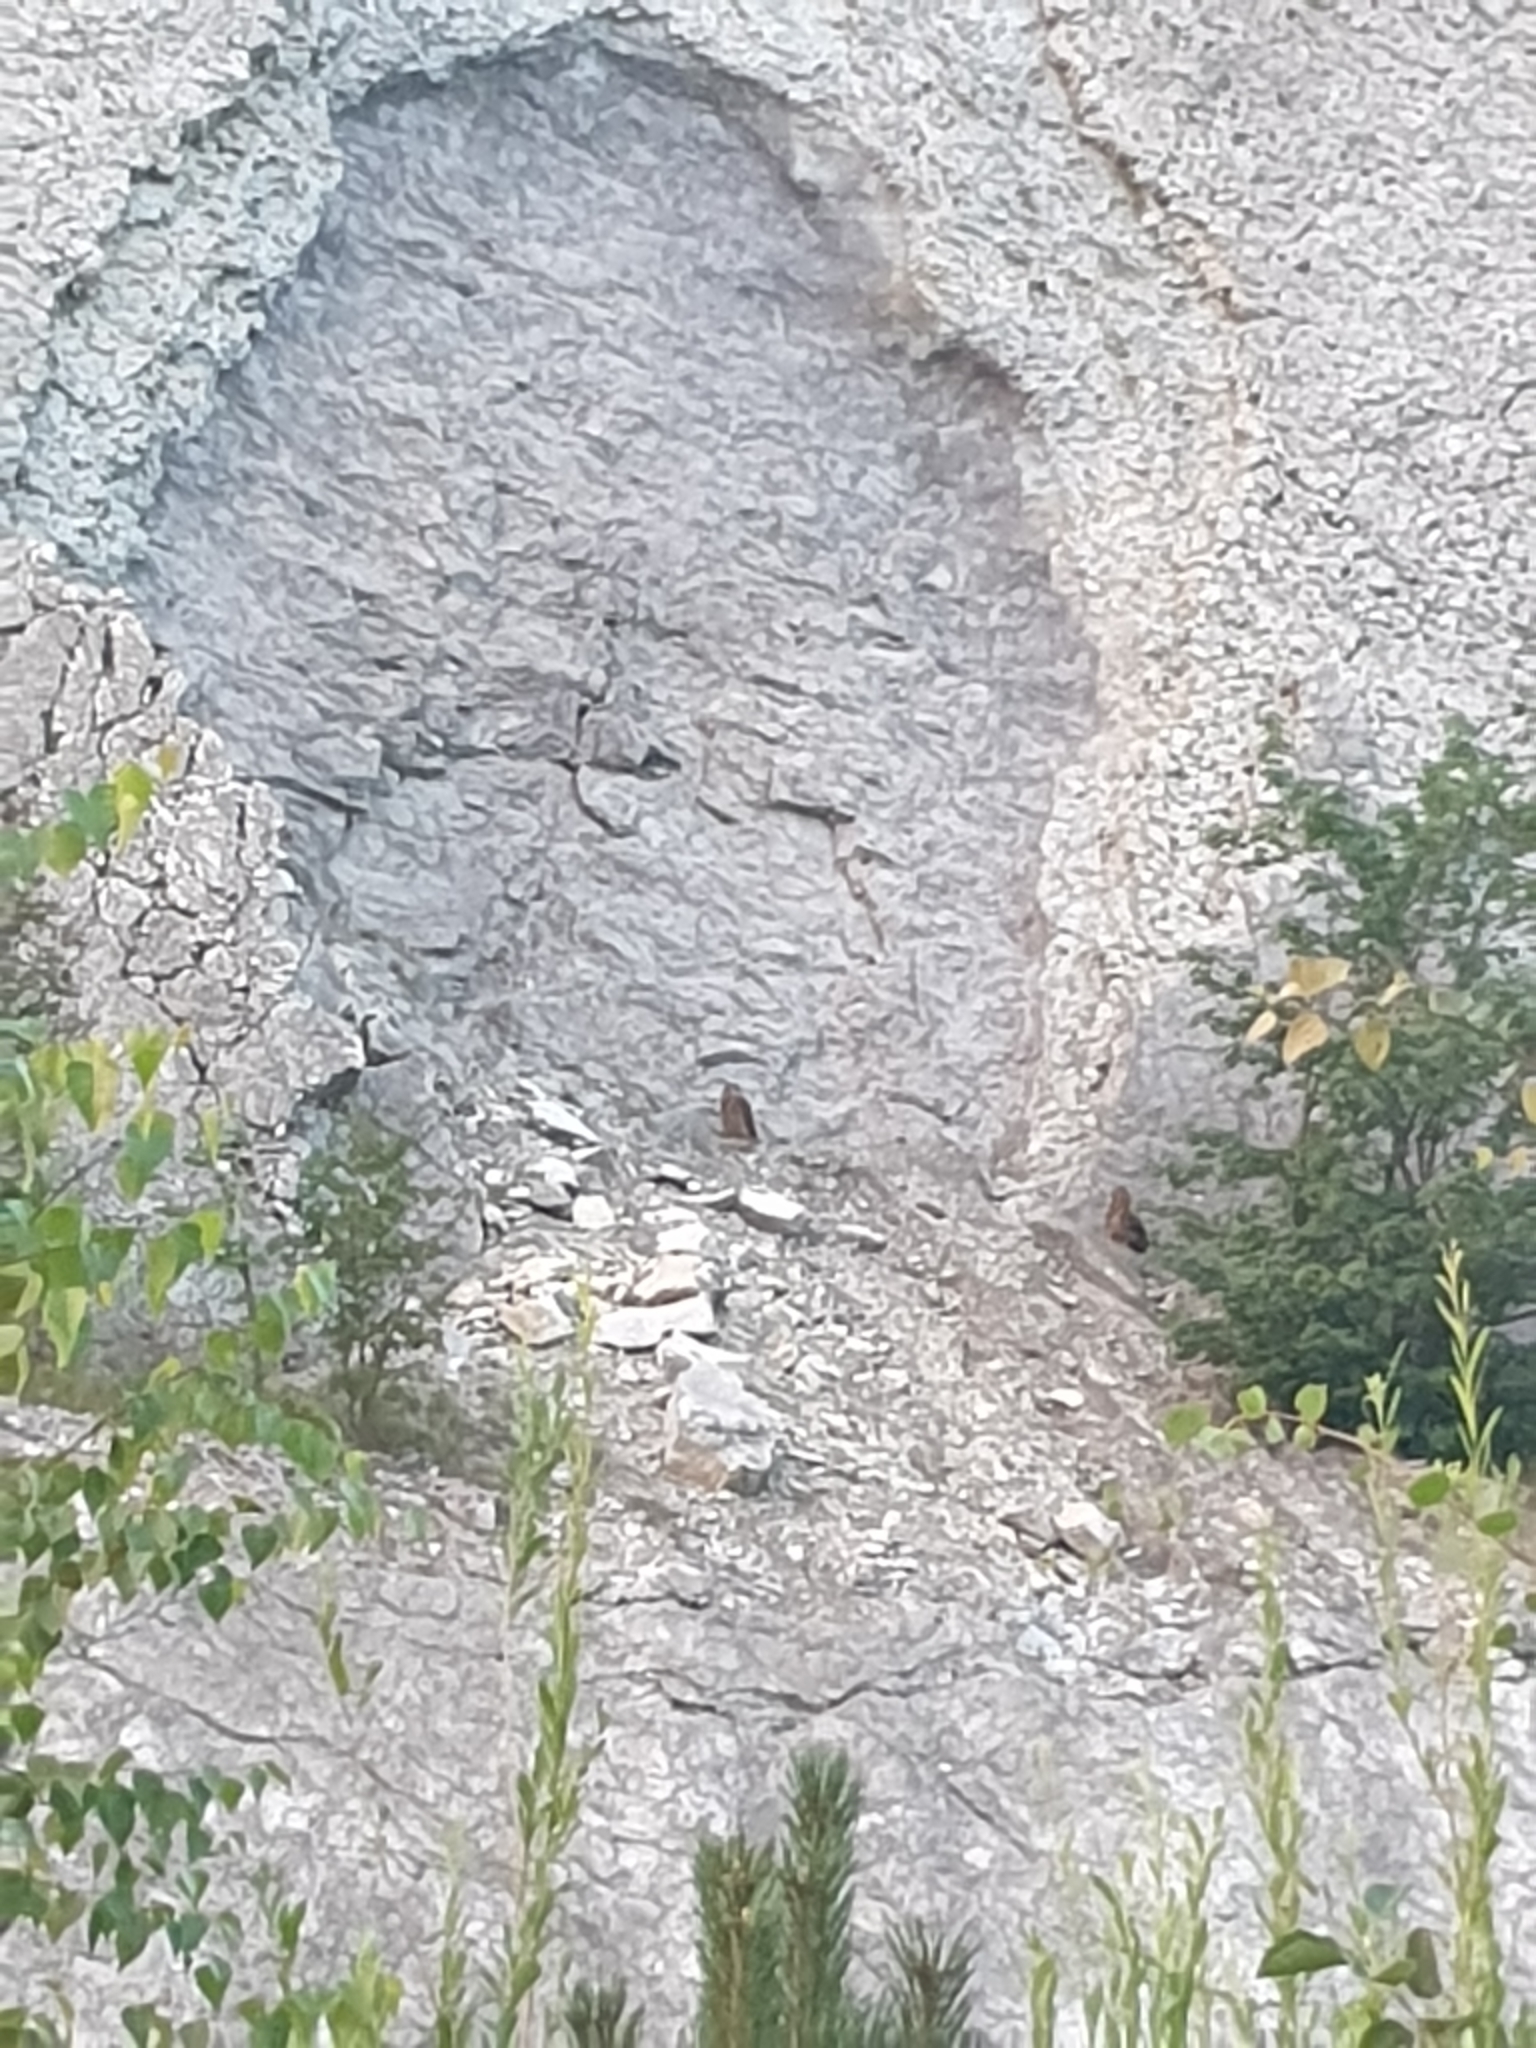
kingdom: Animalia
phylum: Chordata
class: Aves
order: Strigiformes
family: Strigidae
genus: Bubo
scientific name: Bubo bubo
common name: Eurasian eagle-owl
